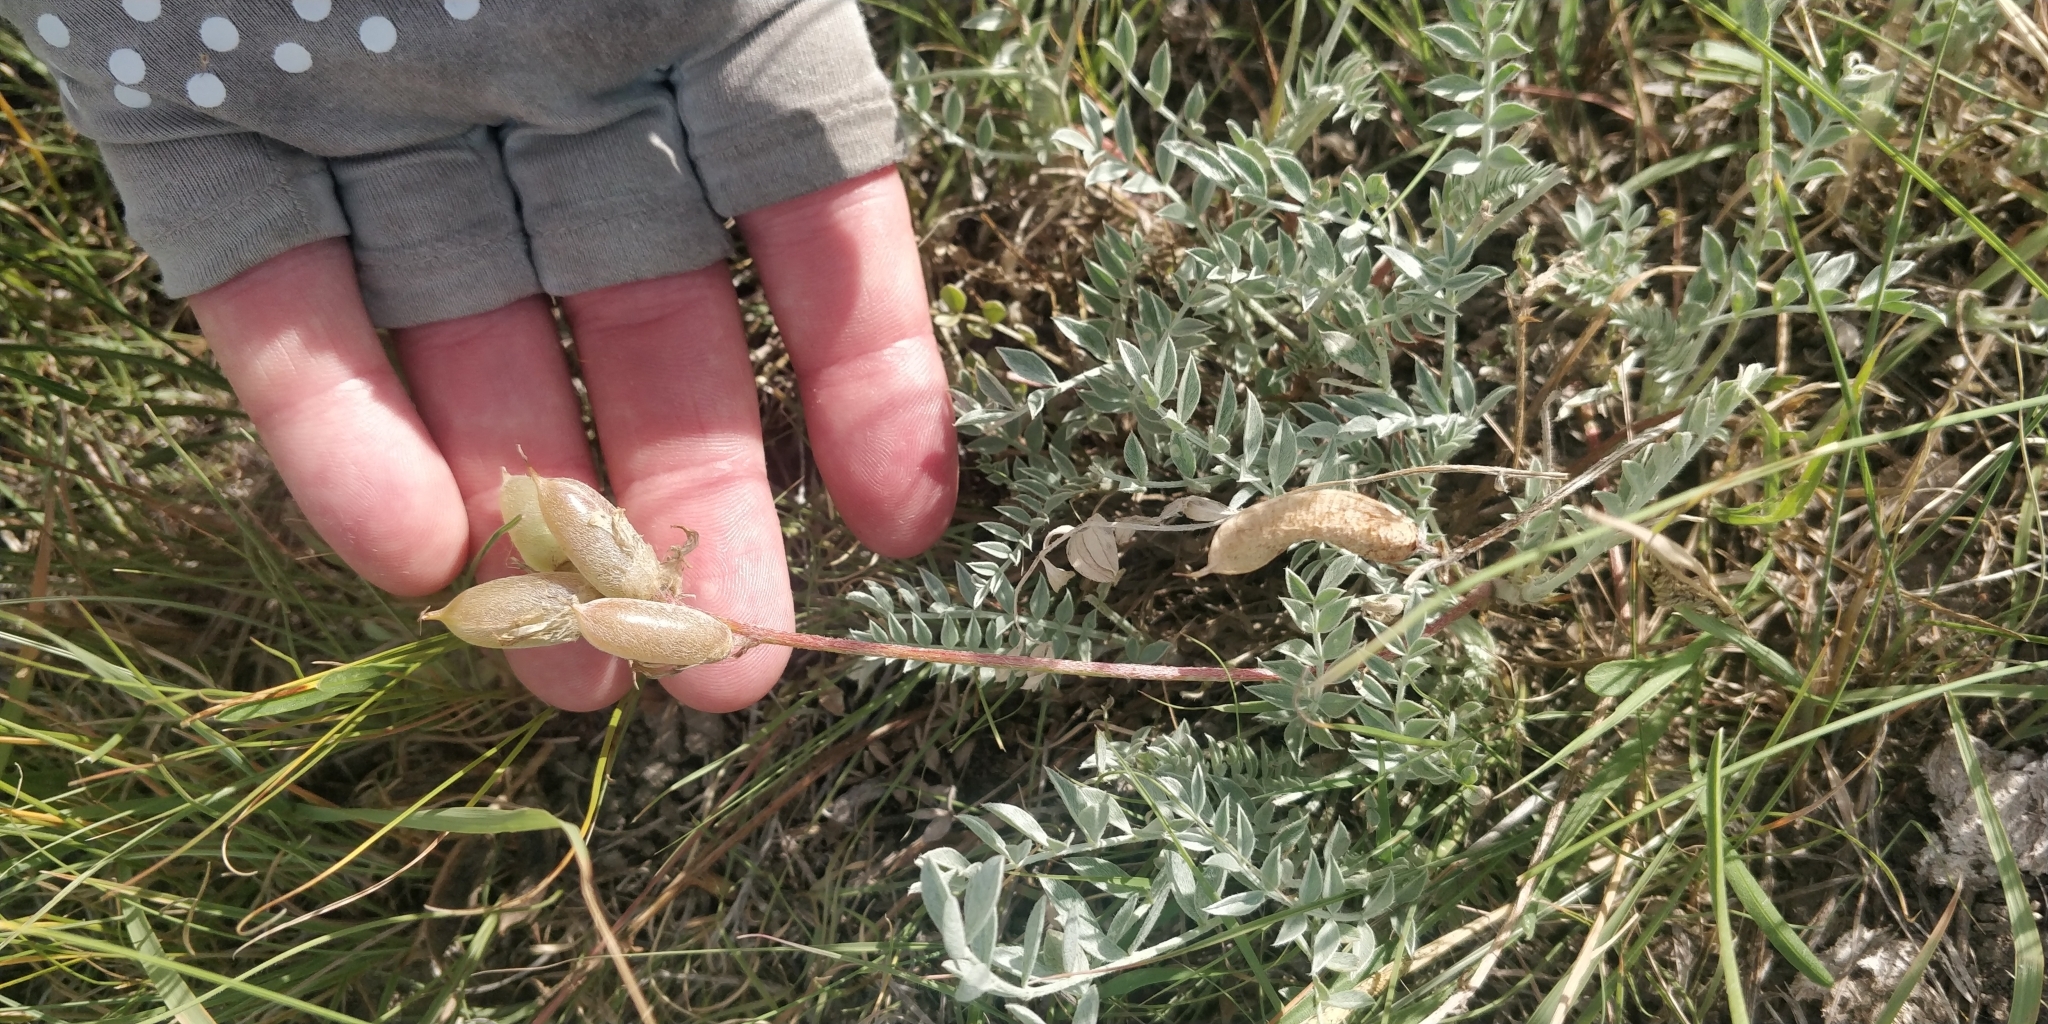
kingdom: Plantae
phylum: Tracheophyta
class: Magnoliopsida
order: Fabales
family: Fabaceae
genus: Astragalus
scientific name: Astragalus missouriensis
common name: Missouri milk-vetch
